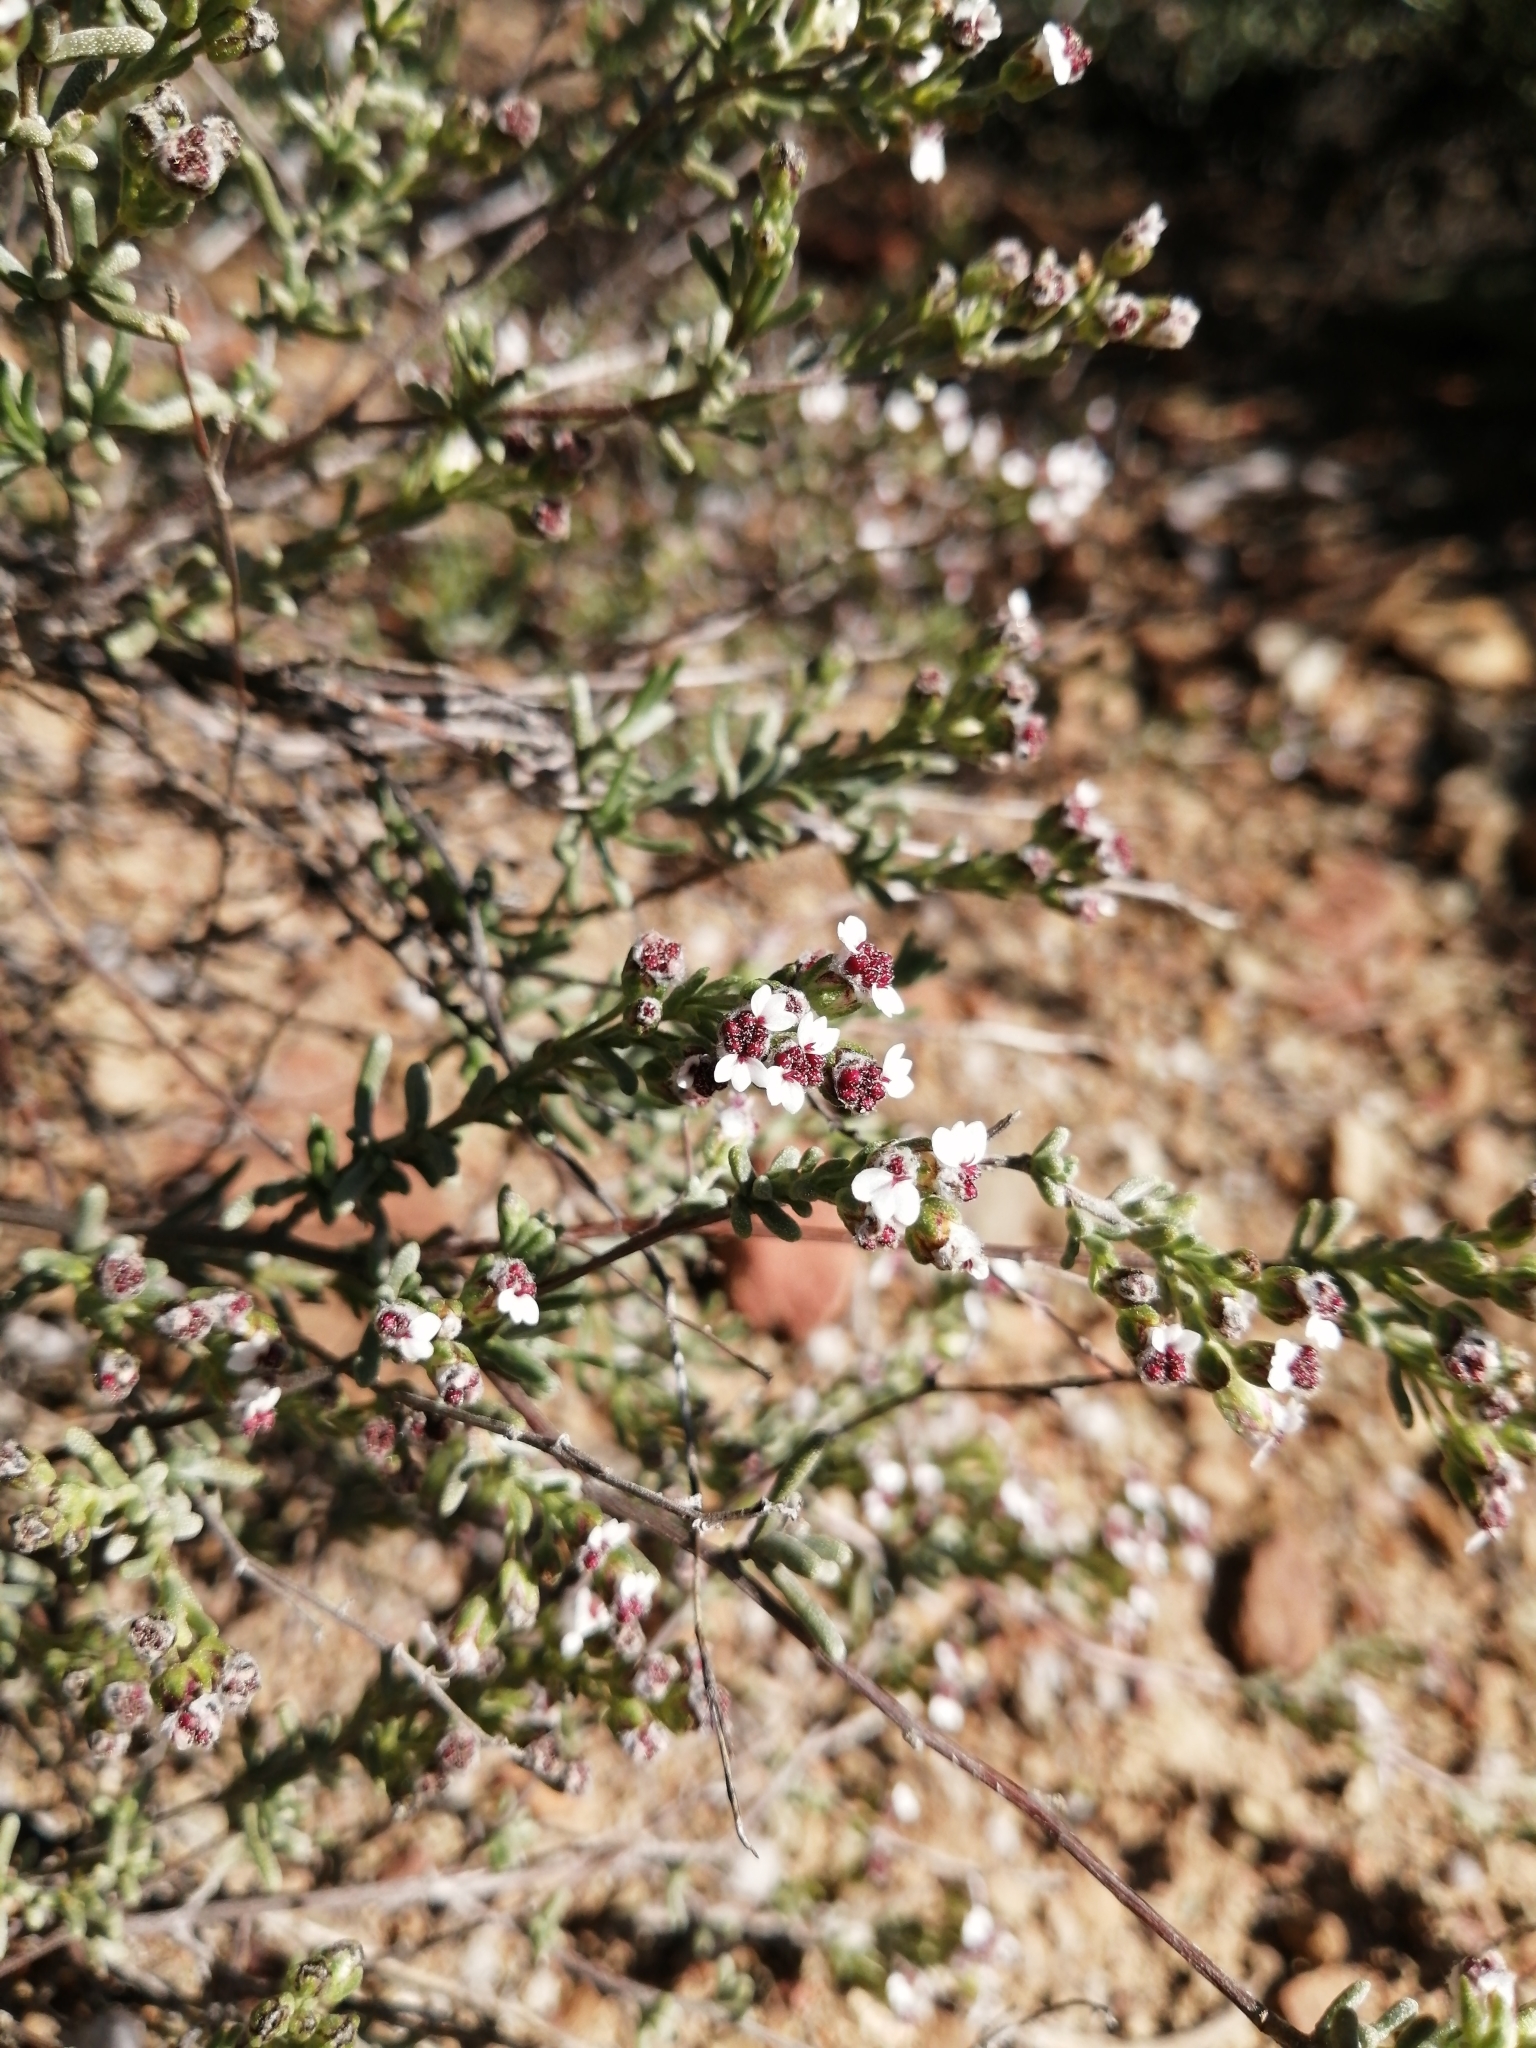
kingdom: Plantae
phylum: Tracheophyta
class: Magnoliopsida
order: Asterales
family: Asteraceae
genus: Eriocephalus
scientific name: Eriocephalus capitellatus
